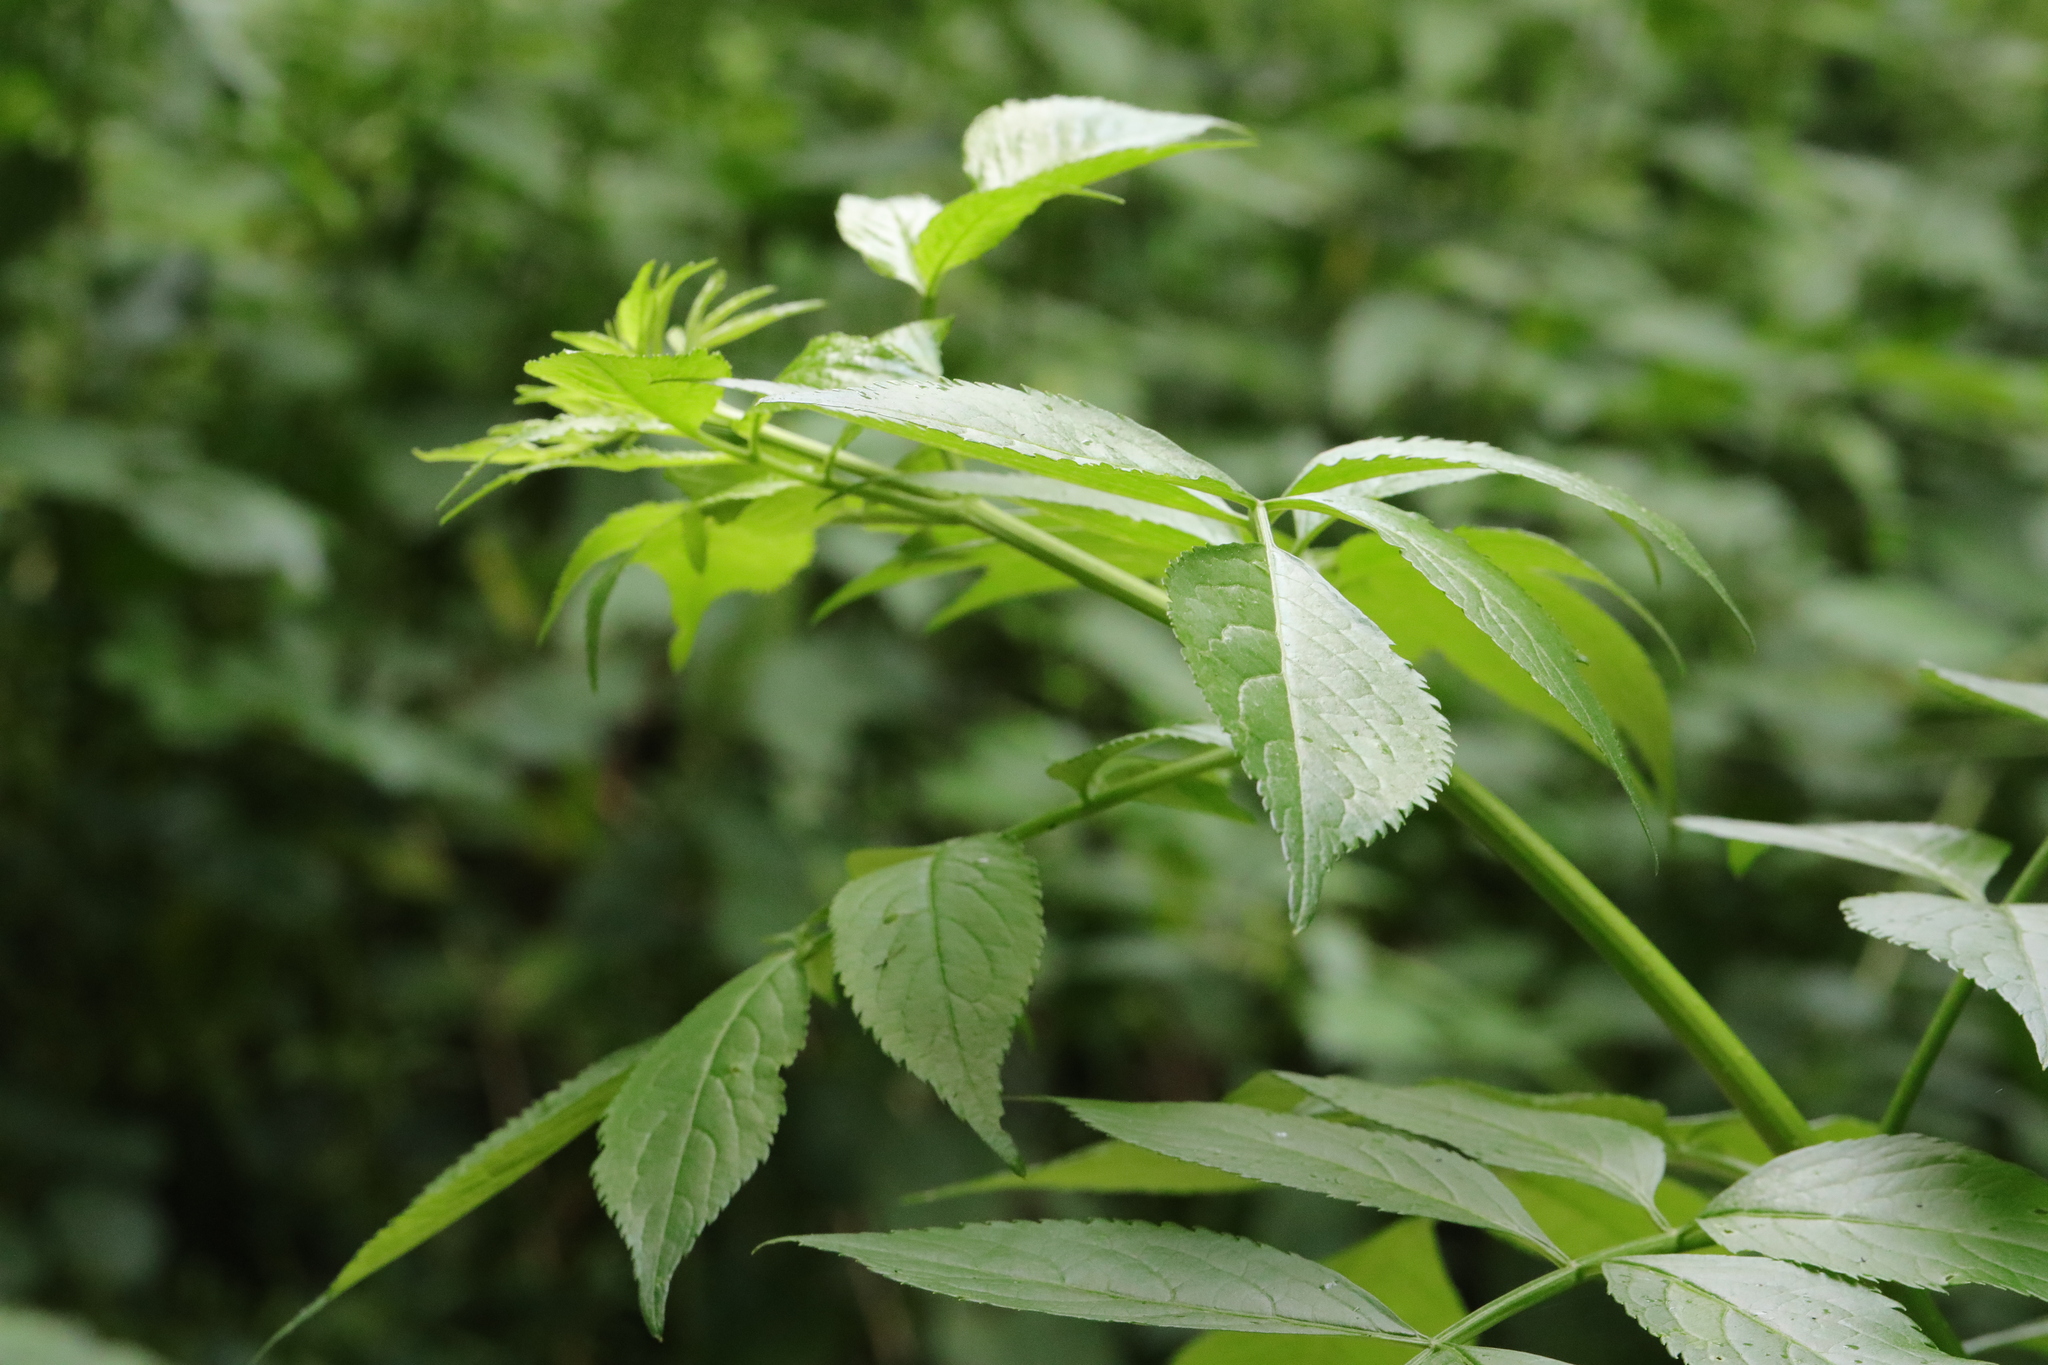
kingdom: Plantae
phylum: Tracheophyta
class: Magnoliopsida
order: Dipsacales
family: Viburnaceae
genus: Sambucus
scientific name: Sambucus nigra
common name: Elder
